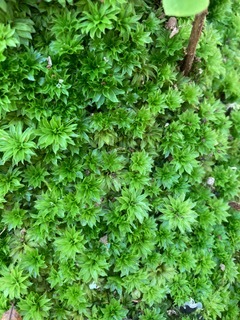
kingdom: Plantae
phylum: Bryophyta
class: Bryopsida
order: Bryales
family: Bryaceae
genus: Rhodobryum
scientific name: Rhodobryum ontariense
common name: Ontario rhodobryum moss
